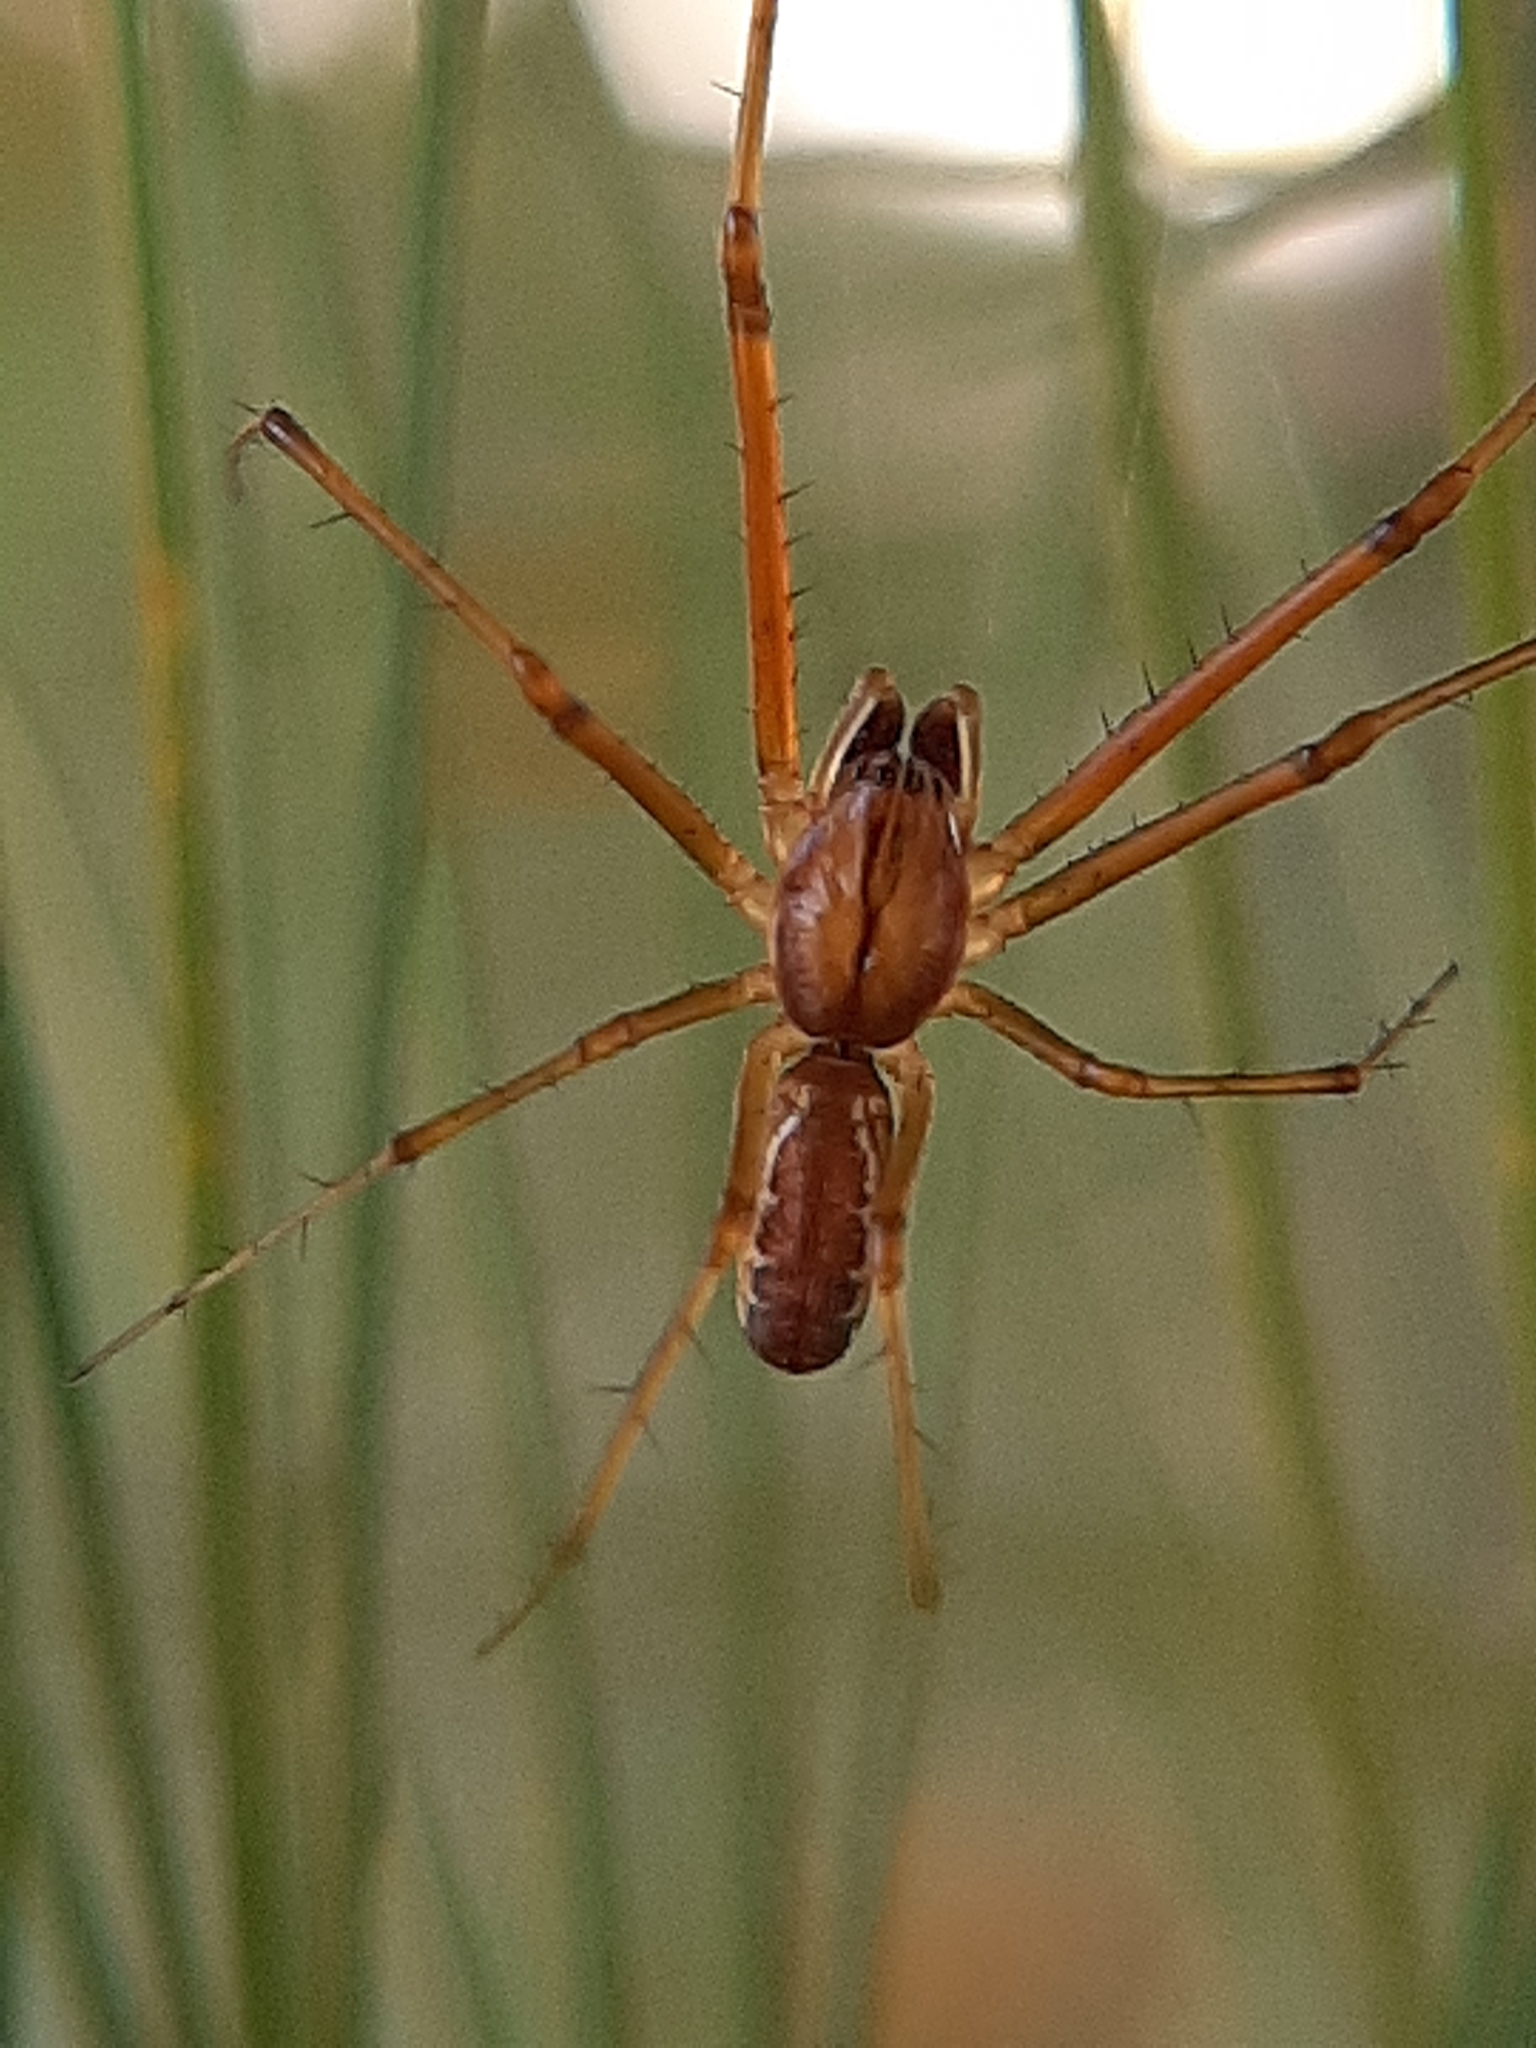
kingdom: Animalia
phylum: Arthropoda
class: Arachnida
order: Araneae
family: Linyphiidae
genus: Linyphia
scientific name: Linyphia triangularis
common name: Money spider
